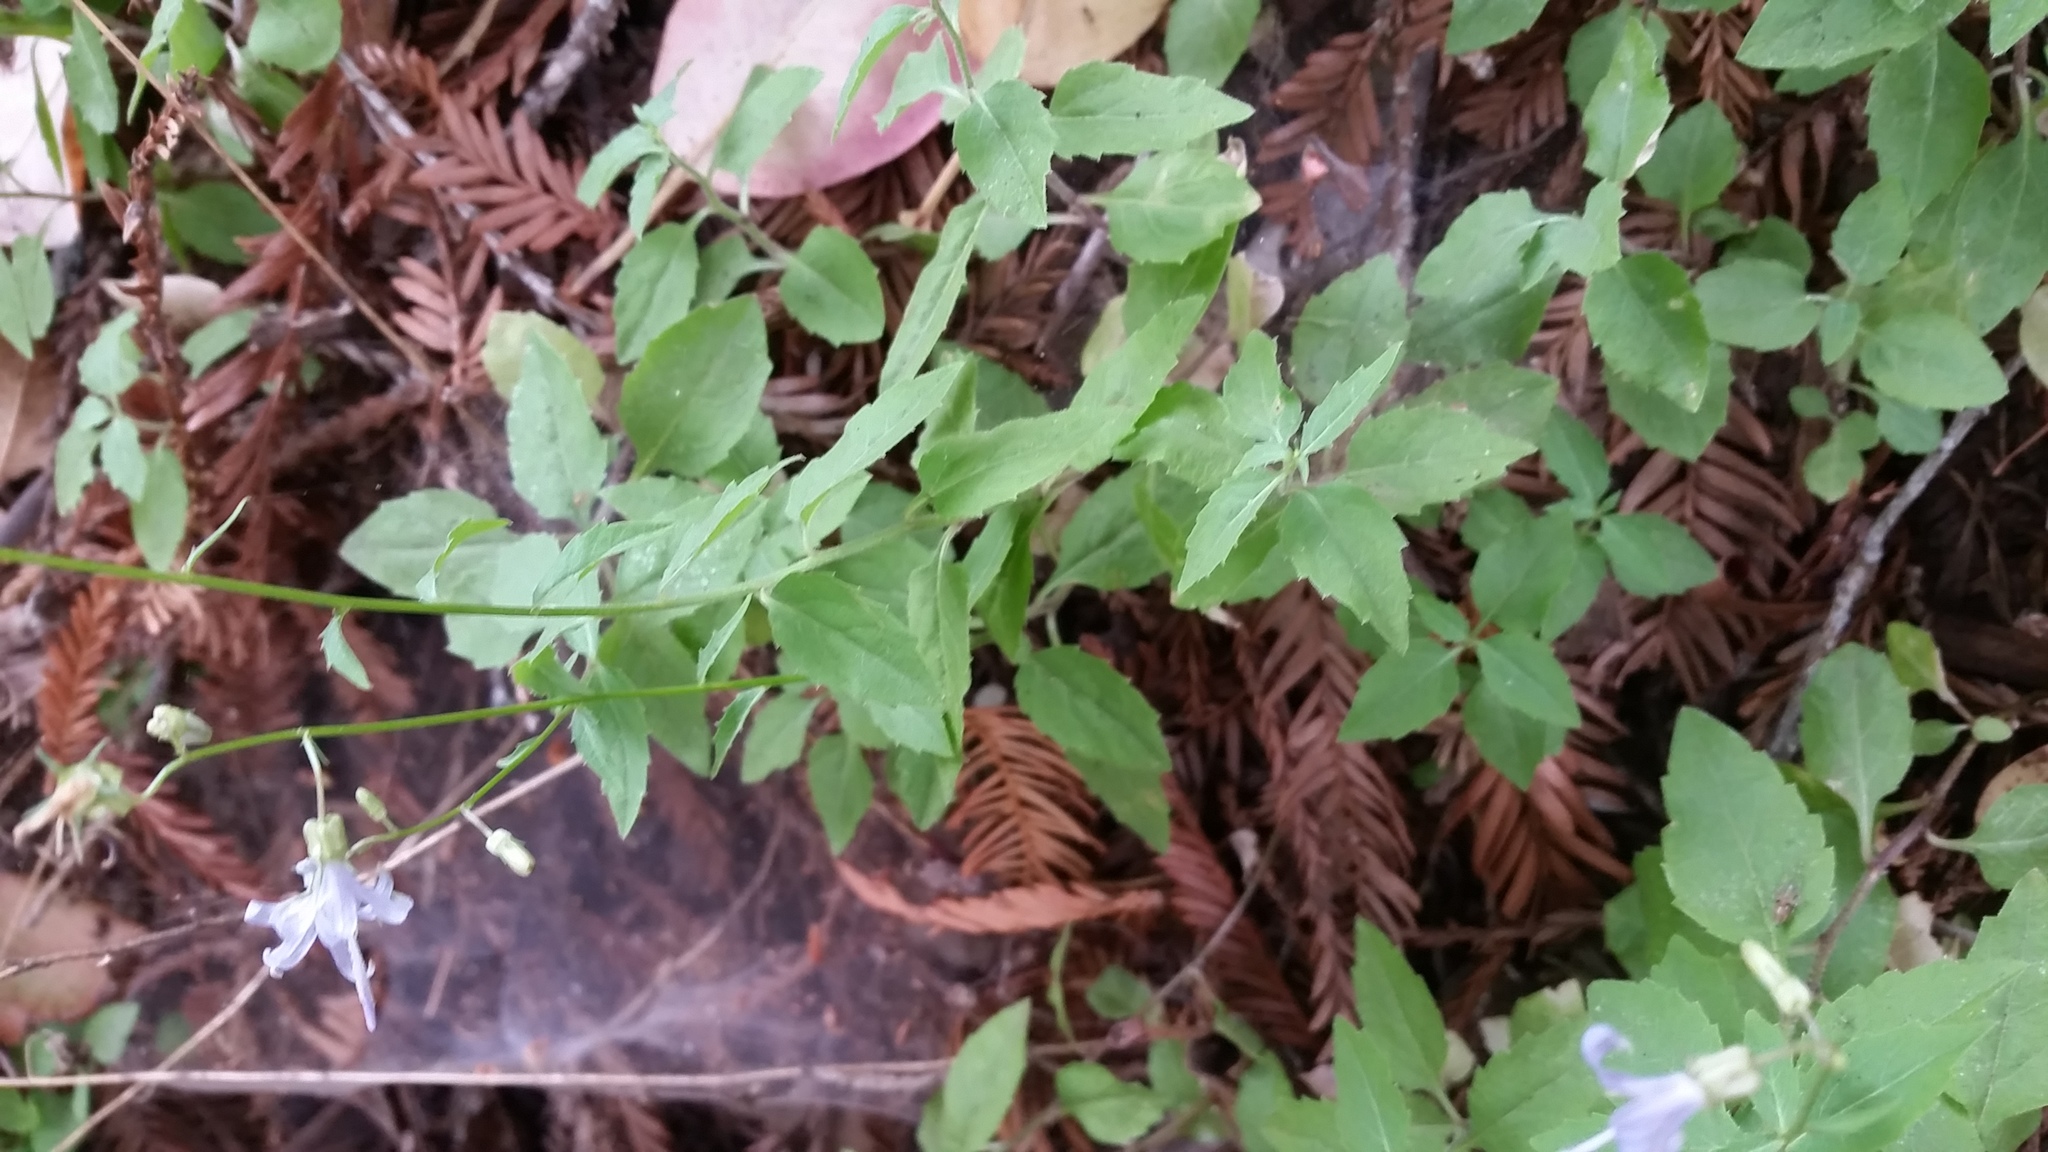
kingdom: Plantae
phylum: Tracheophyta
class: Magnoliopsida
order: Asterales
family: Campanulaceae
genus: Smithiastrum
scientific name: Smithiastrum prenanthoides
